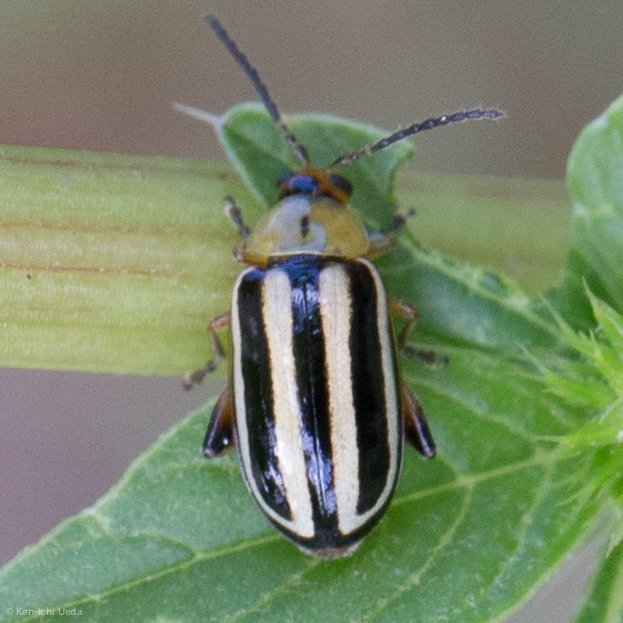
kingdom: Animalia
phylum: Arthropoda
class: Insecta
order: Coleoptera
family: Chrysomelidae
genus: Disonycha
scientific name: Disonycha glabrata
